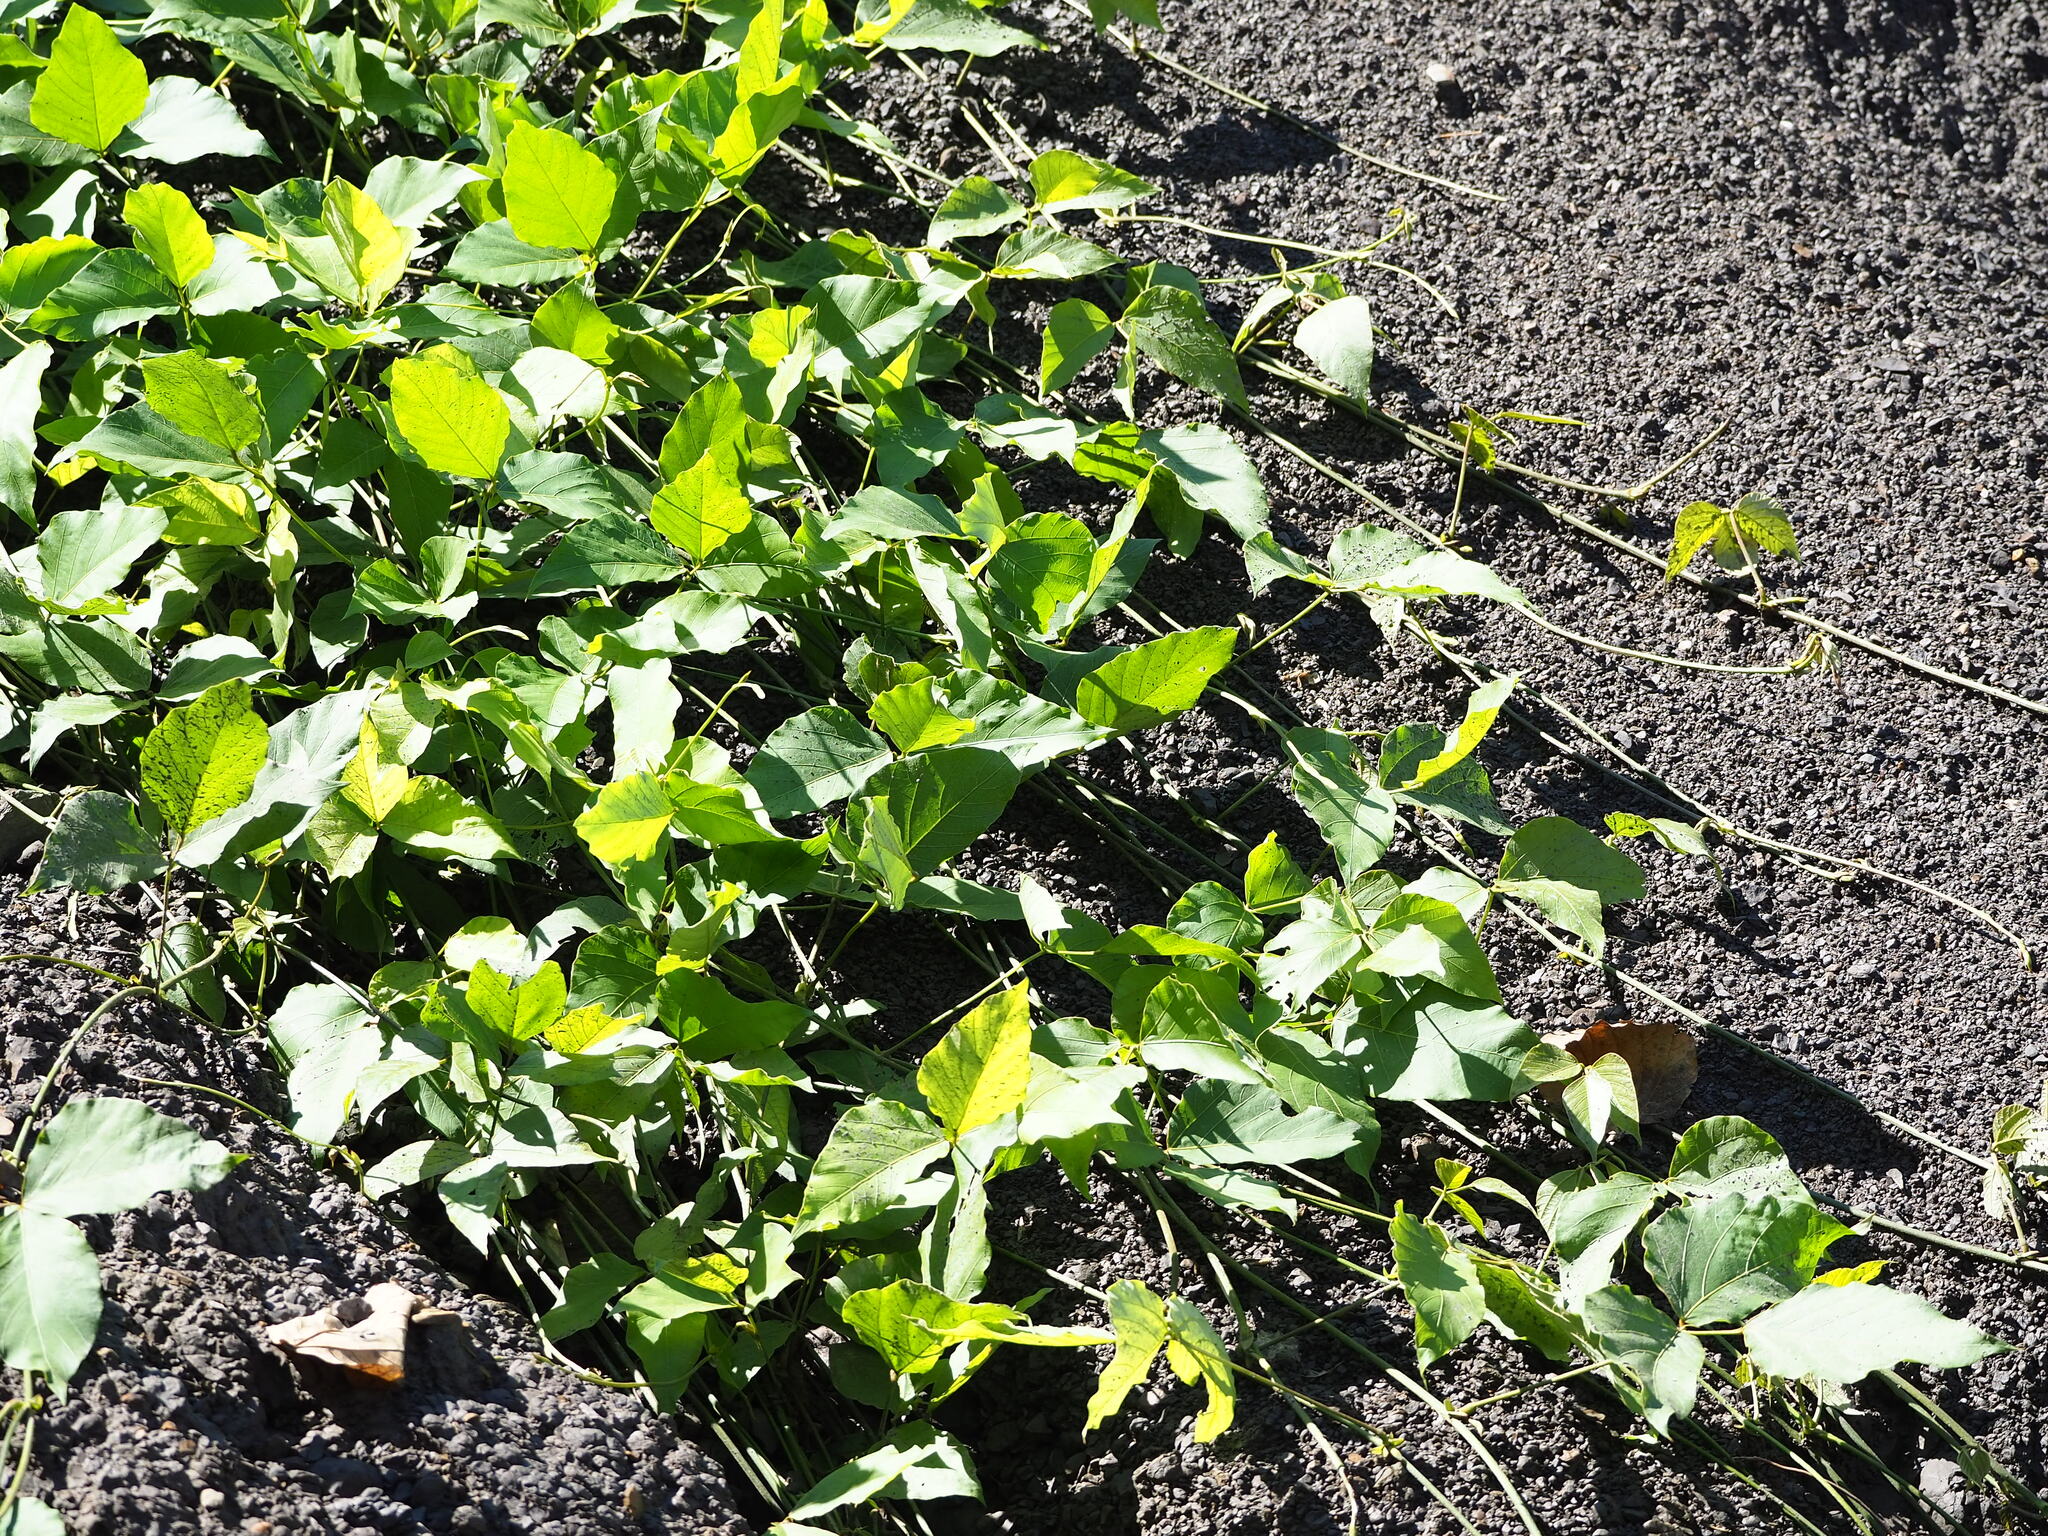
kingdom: Plantae
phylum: Tracheophyta
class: Magnoliopsida
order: Fabales
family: Fabaceae
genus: Pueraria
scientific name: Pueraria montana
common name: Kudzu
